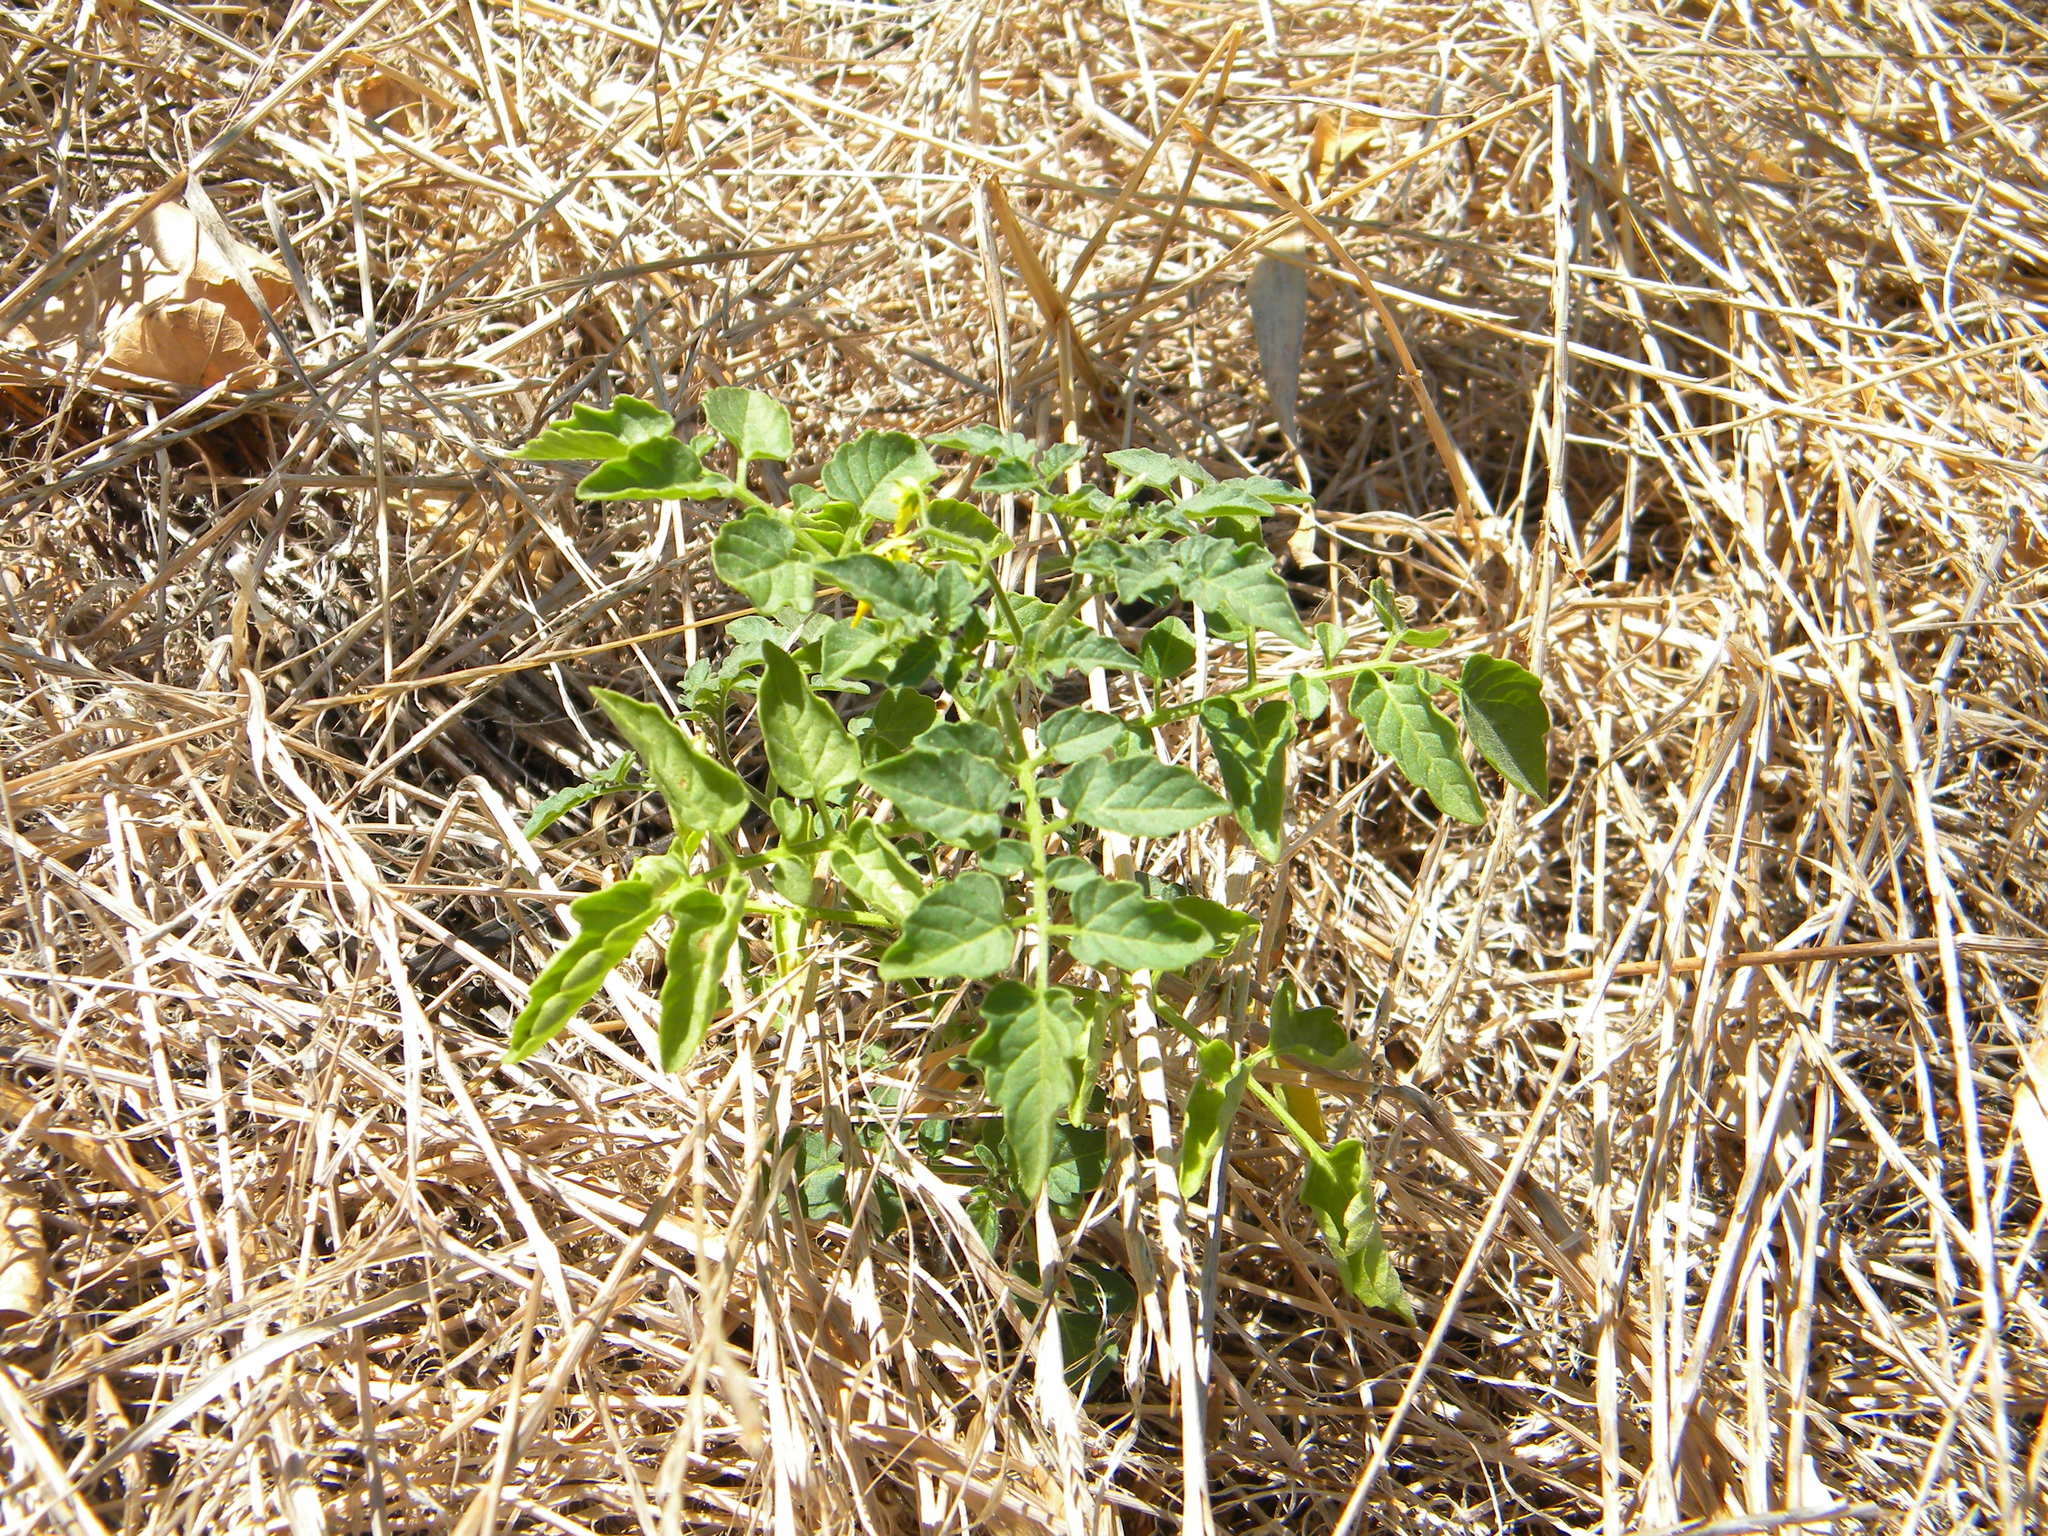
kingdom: Plantae
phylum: Tracheophyta
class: Magnoliopsida
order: Solanales
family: Solanaceae
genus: Solanum
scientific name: Solanum lycopersicum
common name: Garden tomato
